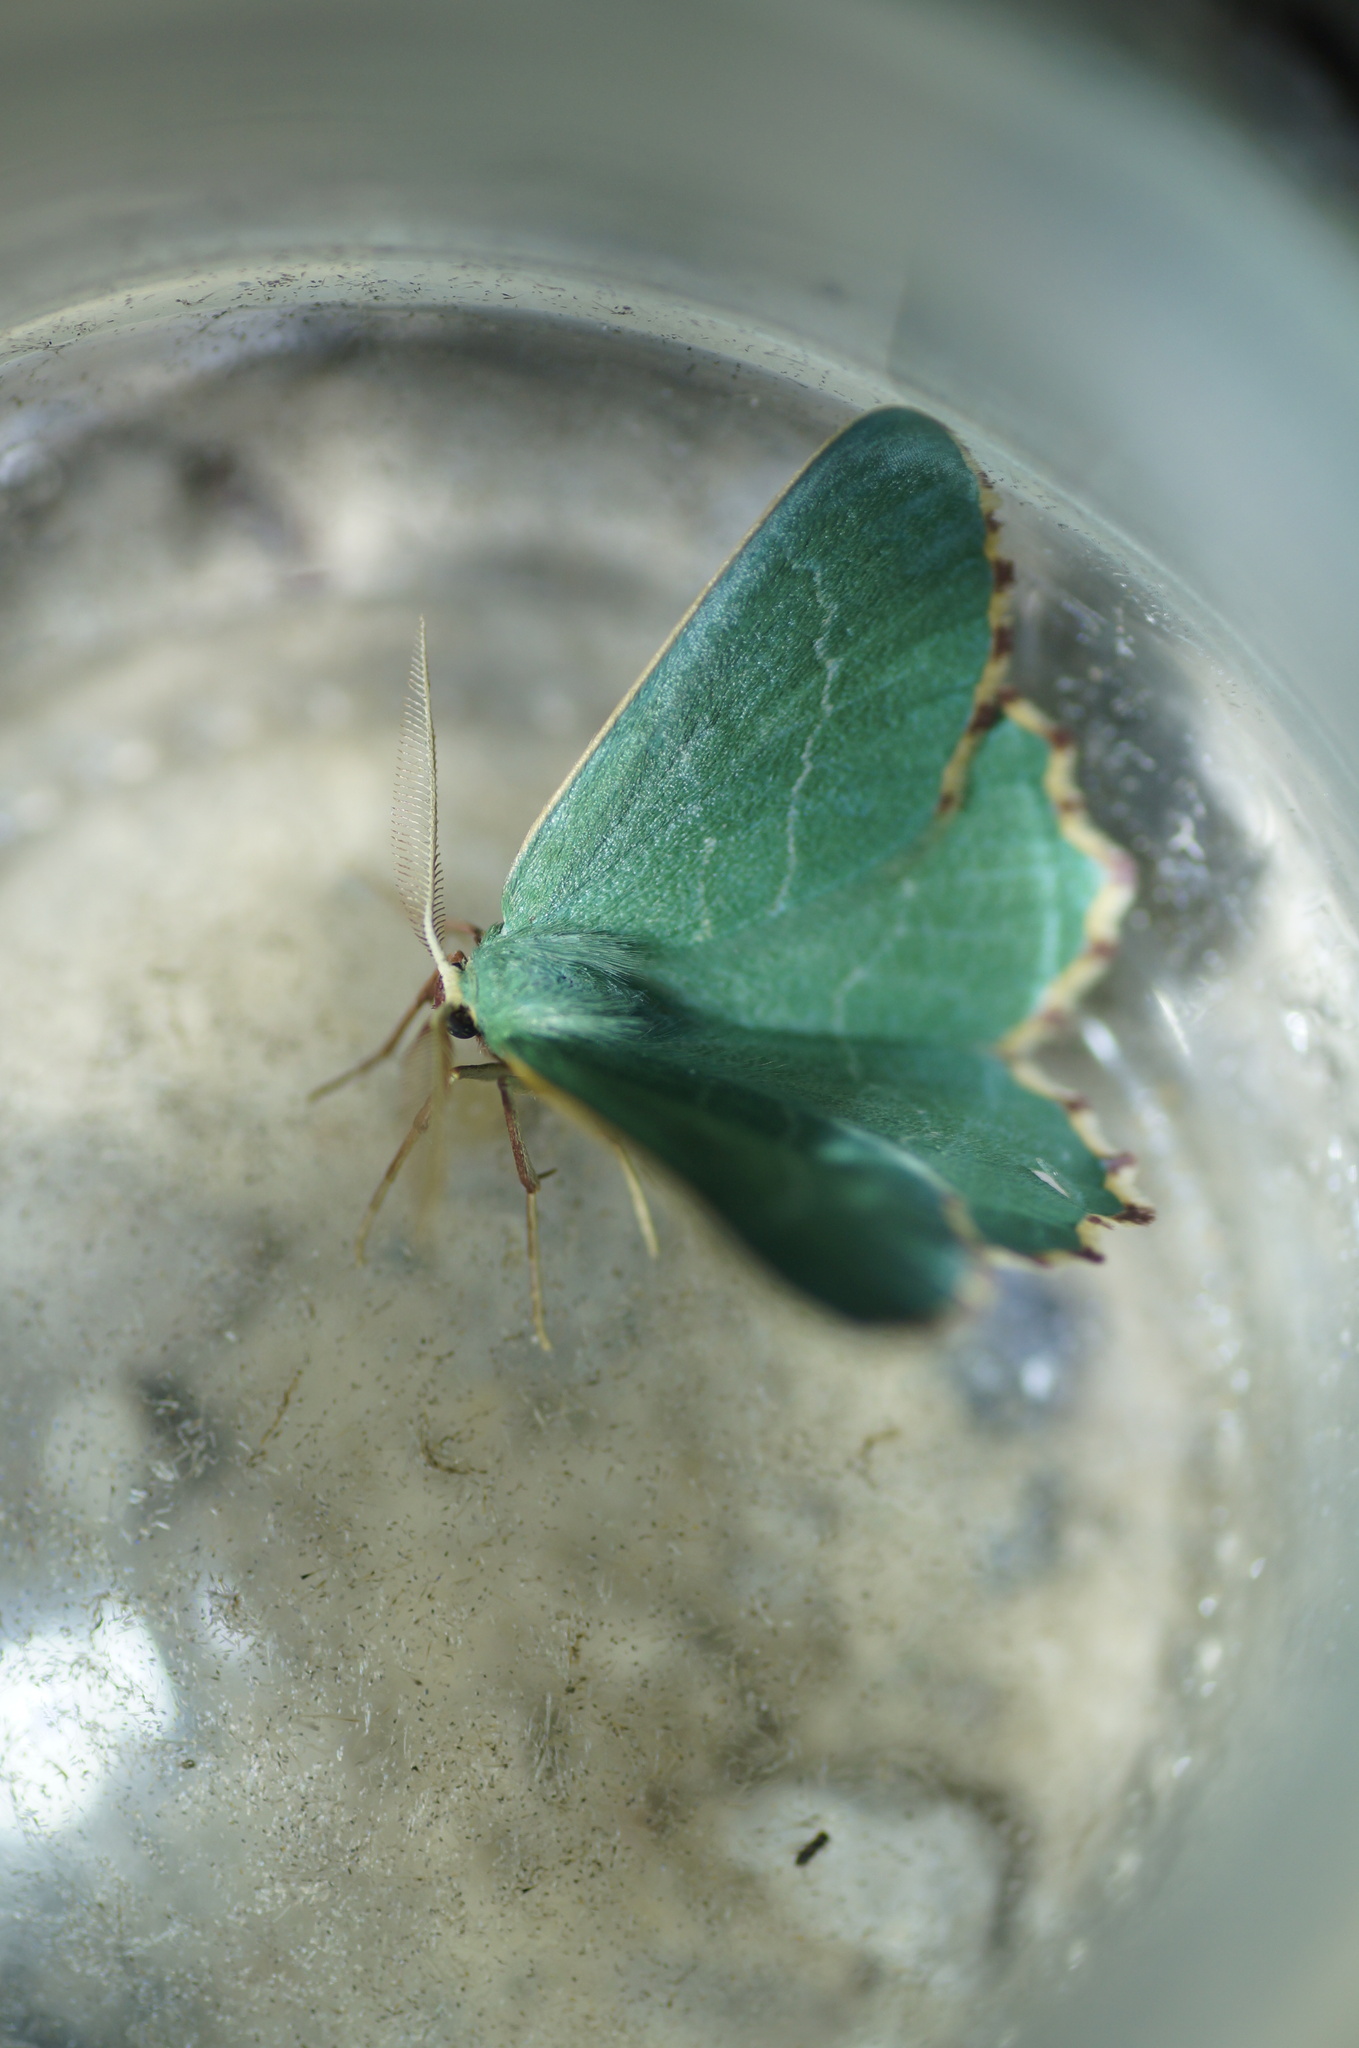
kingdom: Animalia
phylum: Arthropoda
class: Insecta
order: Lepidoptera
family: Geometridae
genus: Thalera
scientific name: Thalera fimbrialis
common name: Sussex emerald
